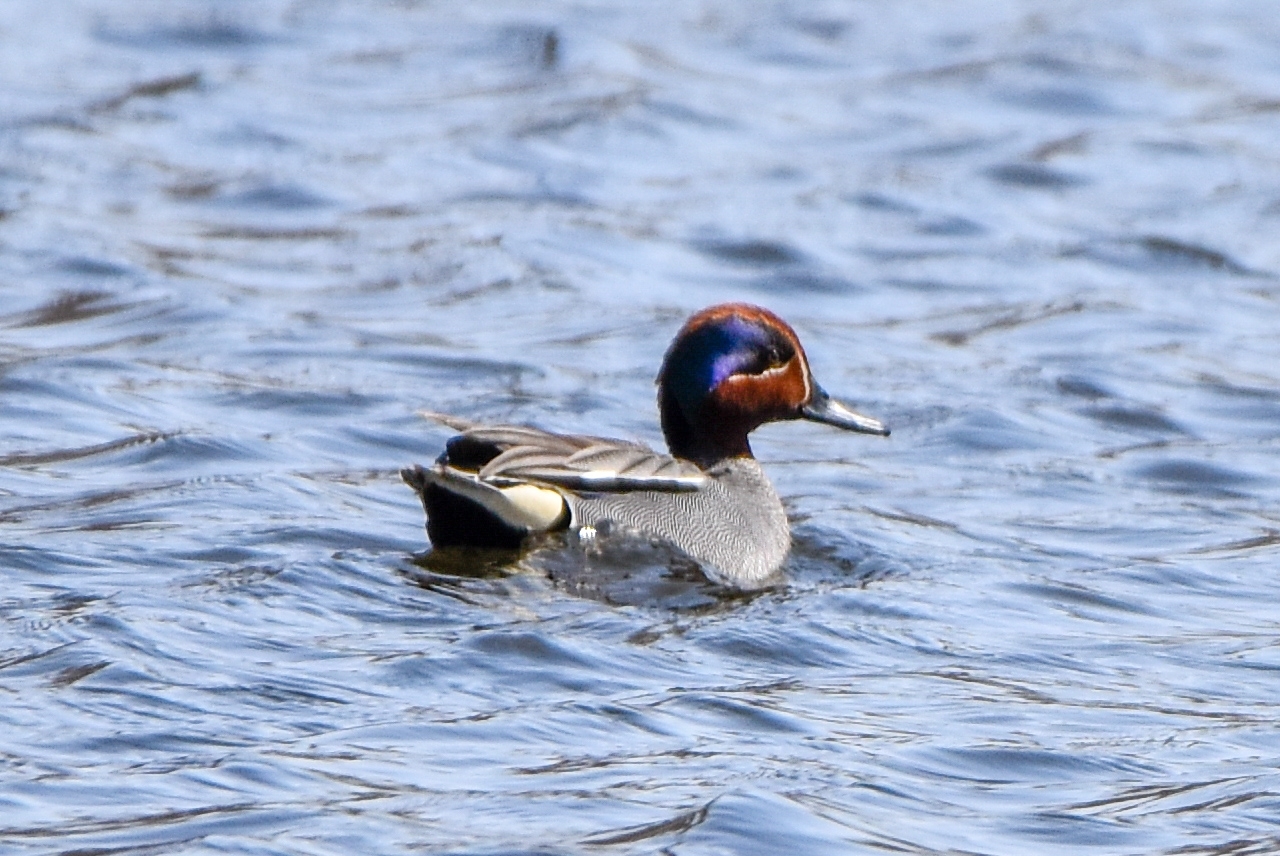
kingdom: Animalia
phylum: Chordata
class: Aves
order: Anseriformes
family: Anatidae
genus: Anas
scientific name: Anas crecca
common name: Eurasian teal
